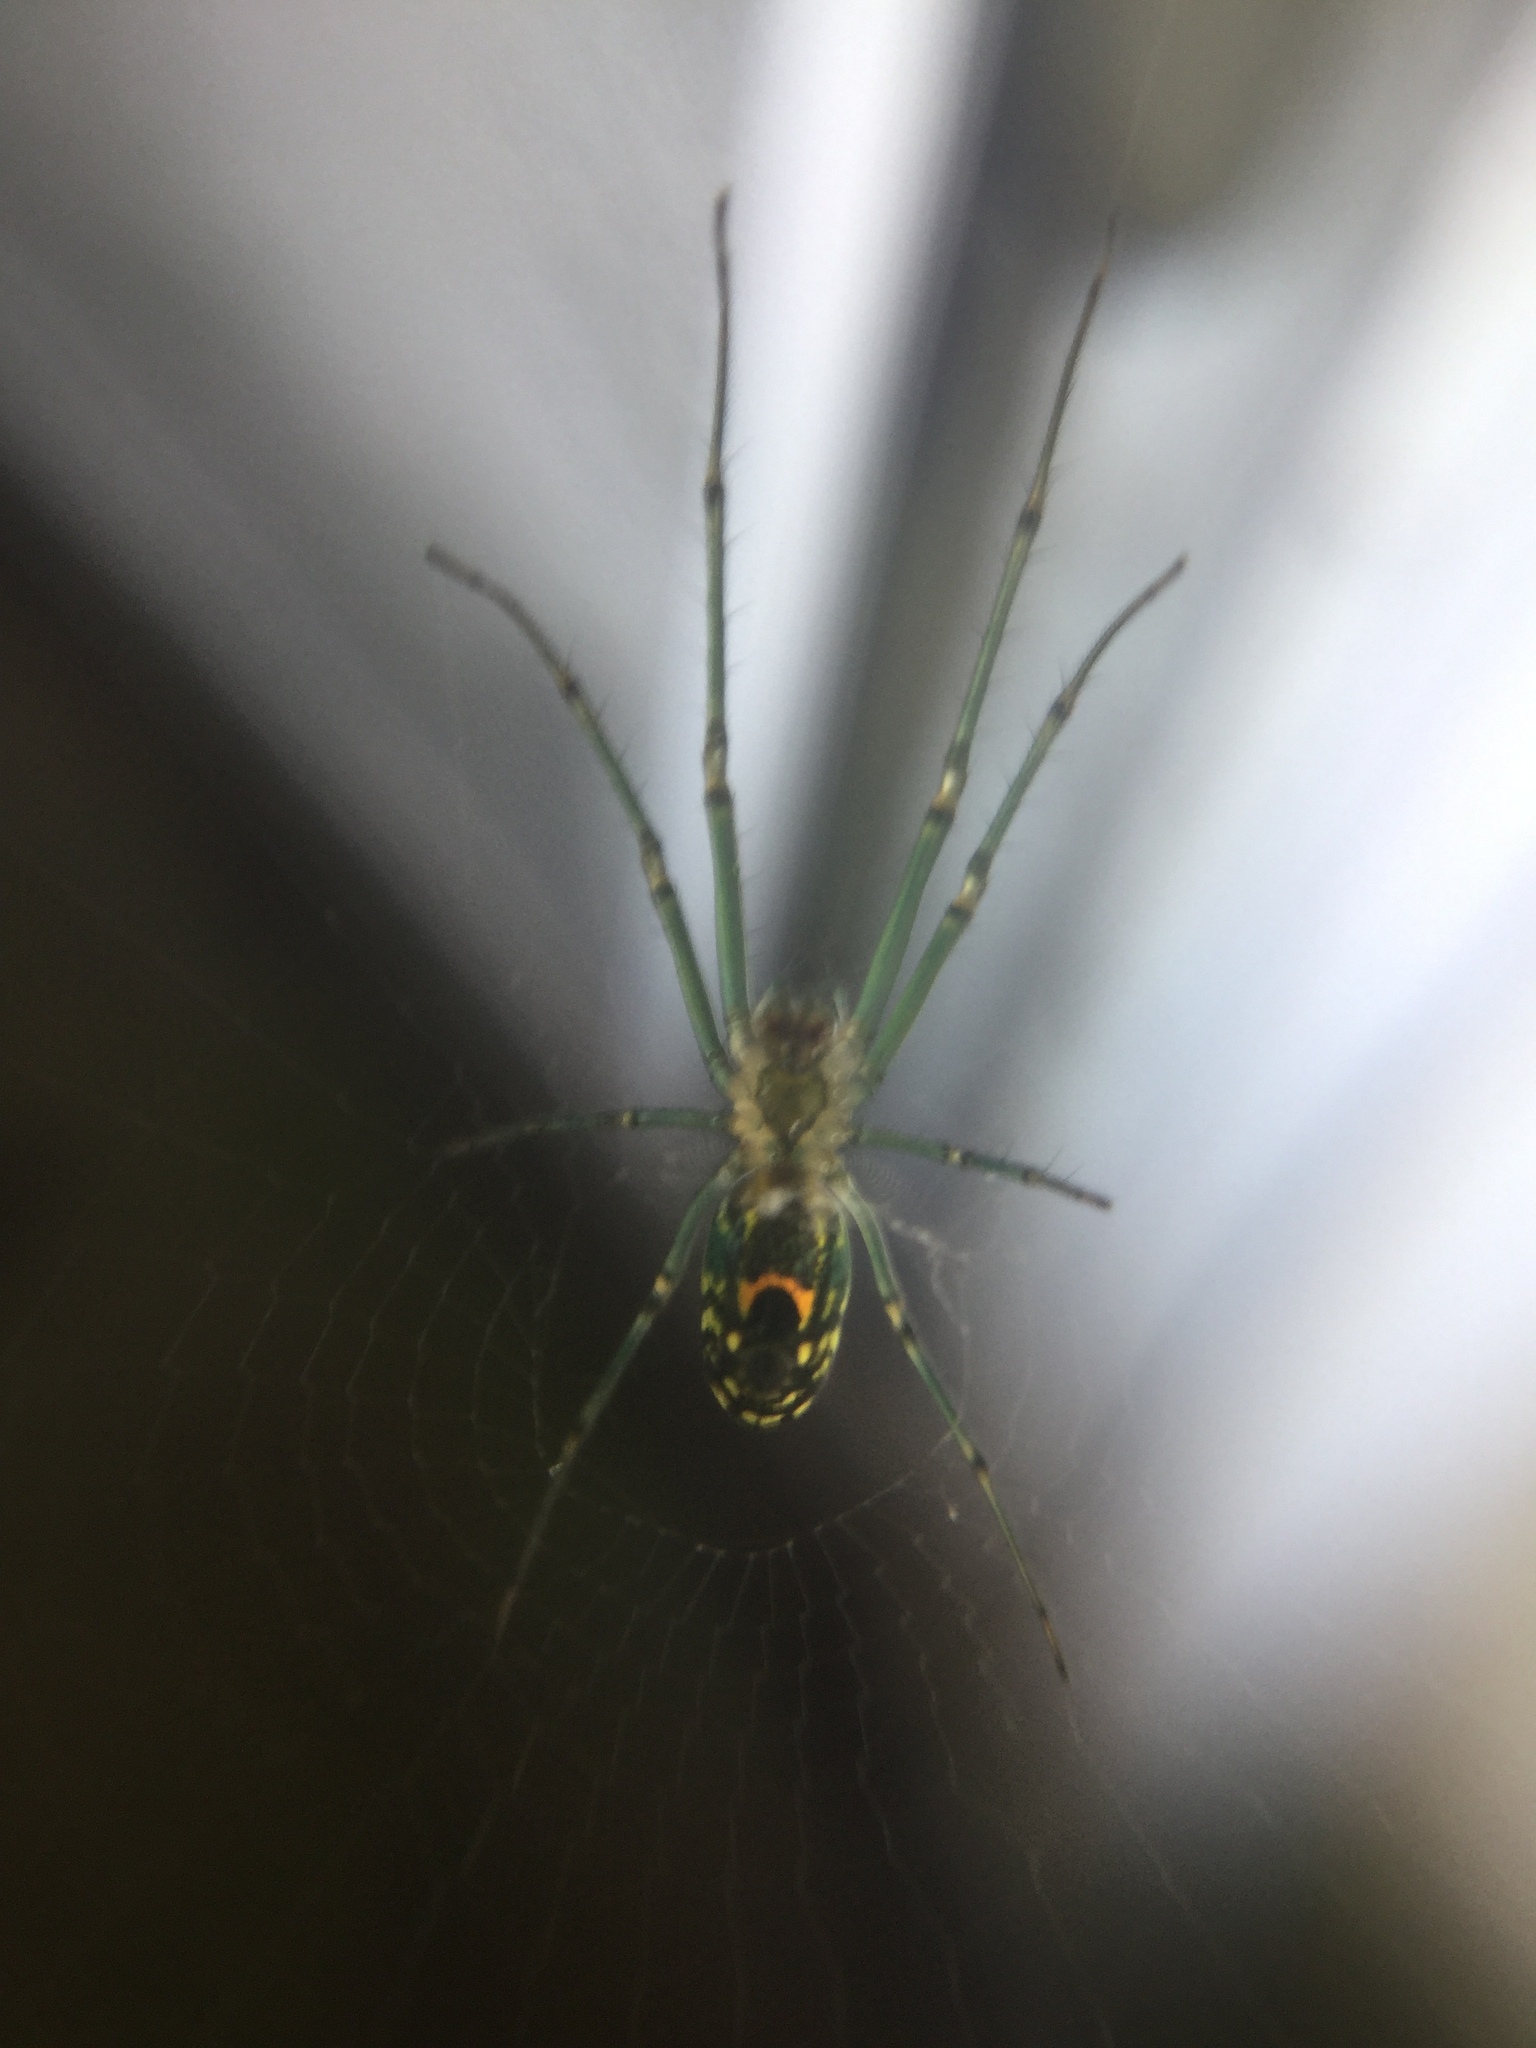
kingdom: Animalia
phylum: Arthropoda
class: Arachnida
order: Araneae
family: Tetragnathidae
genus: Leucauge
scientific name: Leucauge venusta
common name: Longjawed orb weavers
